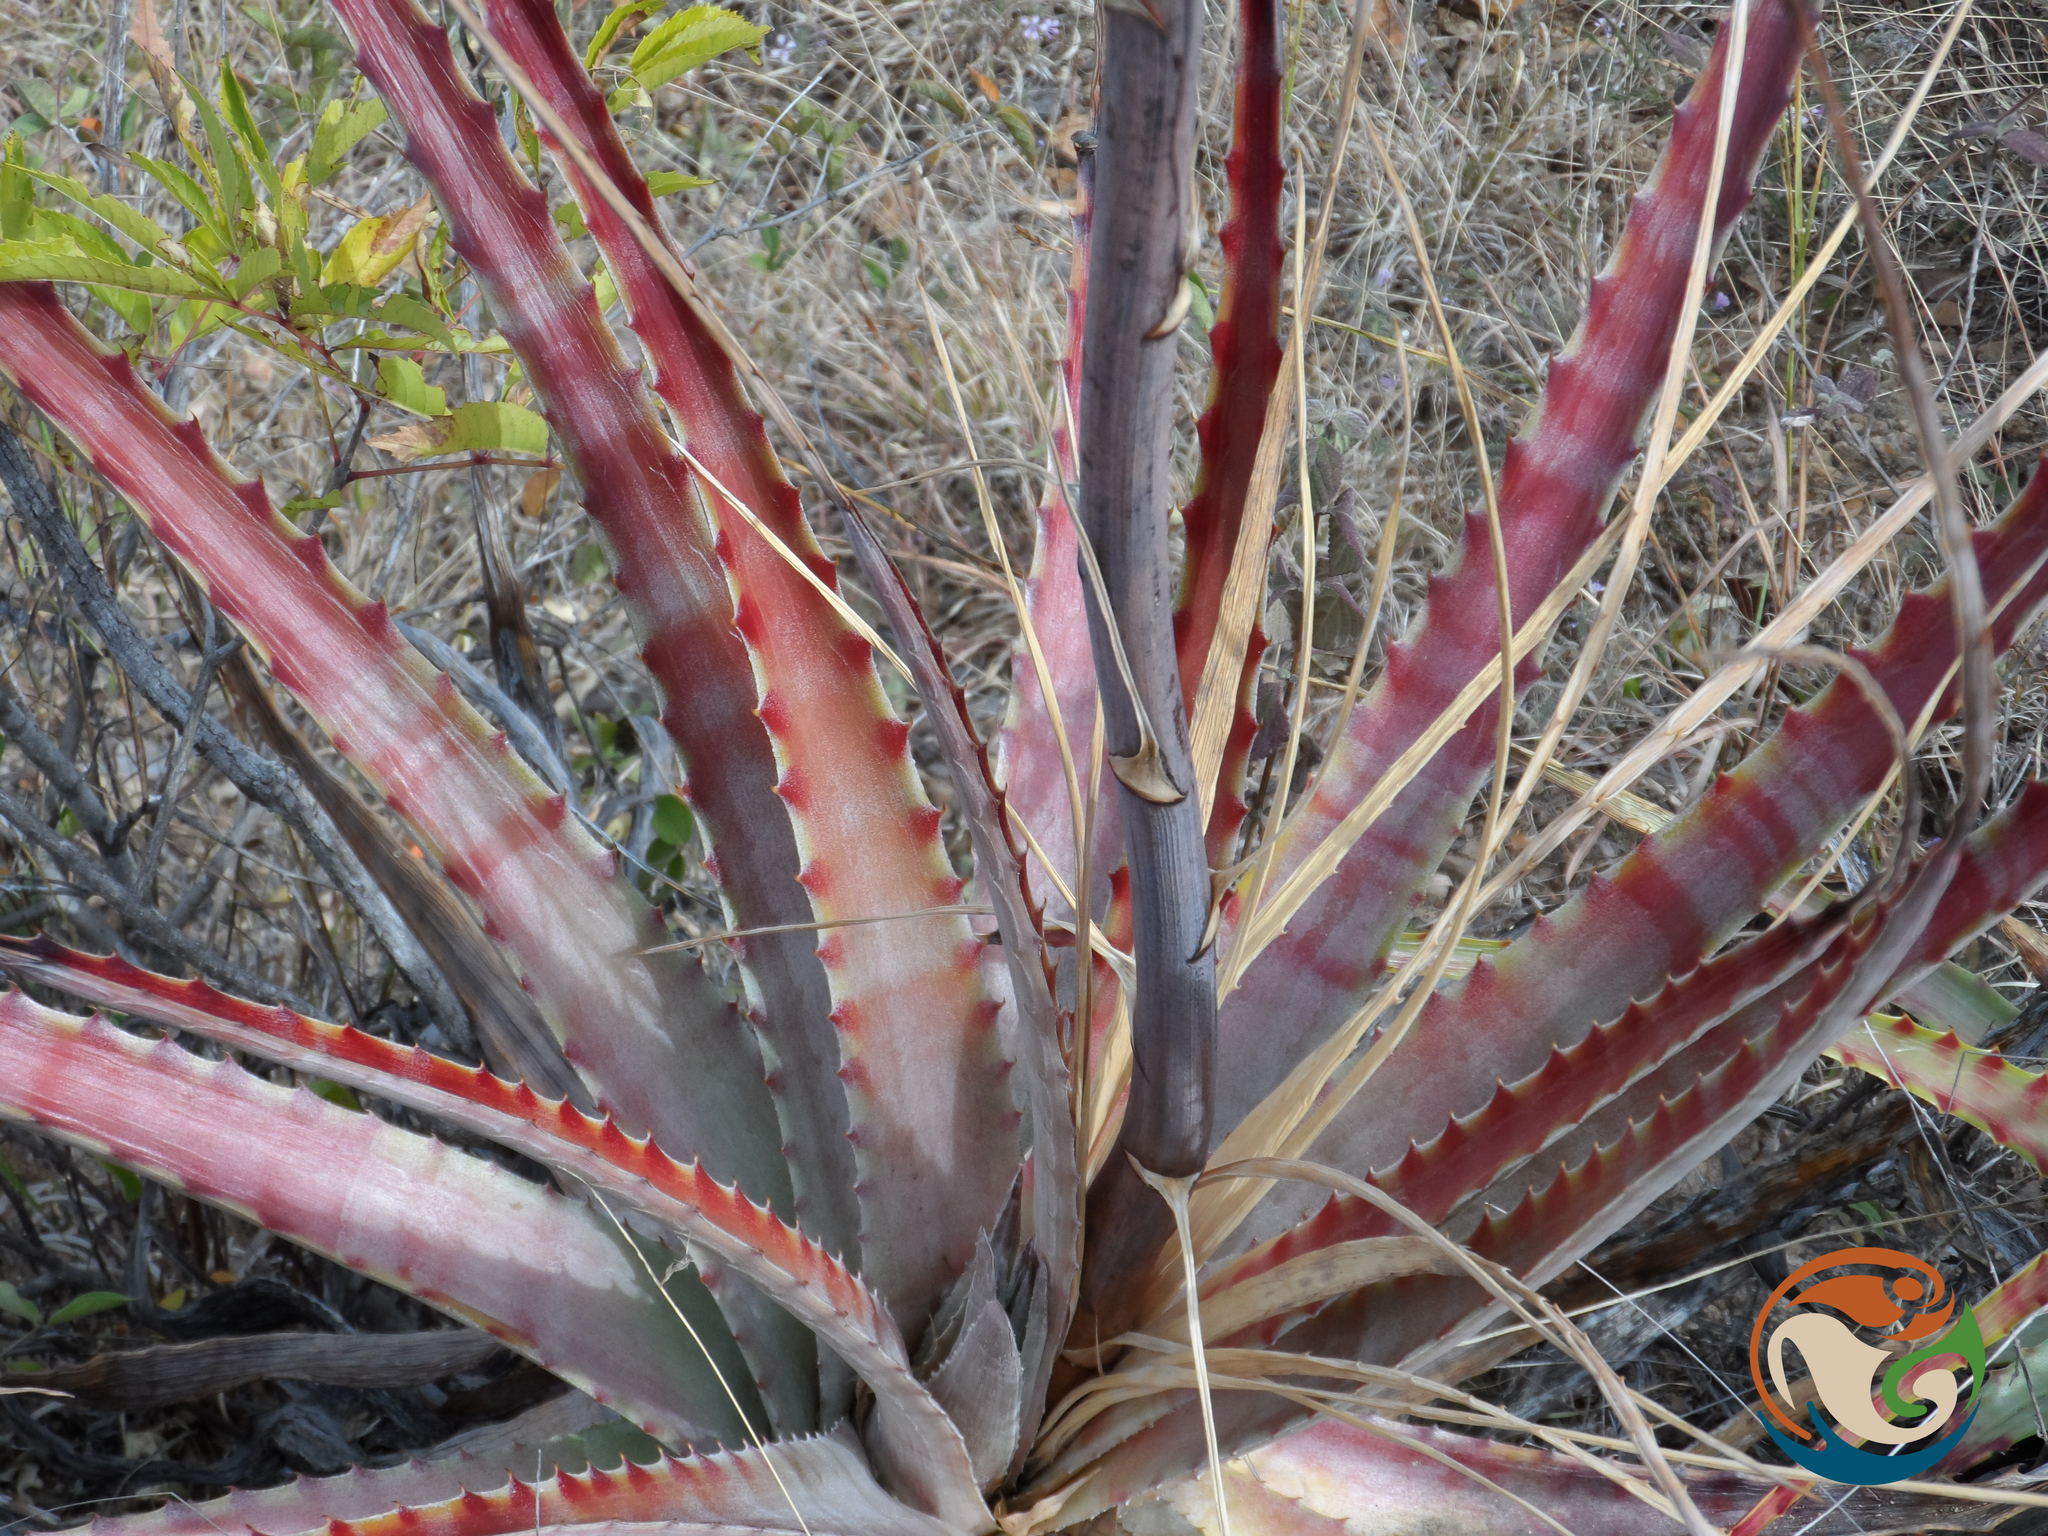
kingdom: Plantae
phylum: Tracheophyta
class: Liliopsida
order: Poales
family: Bromeliaceae
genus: Hechtia
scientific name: Hechtia sphaeroblasta
